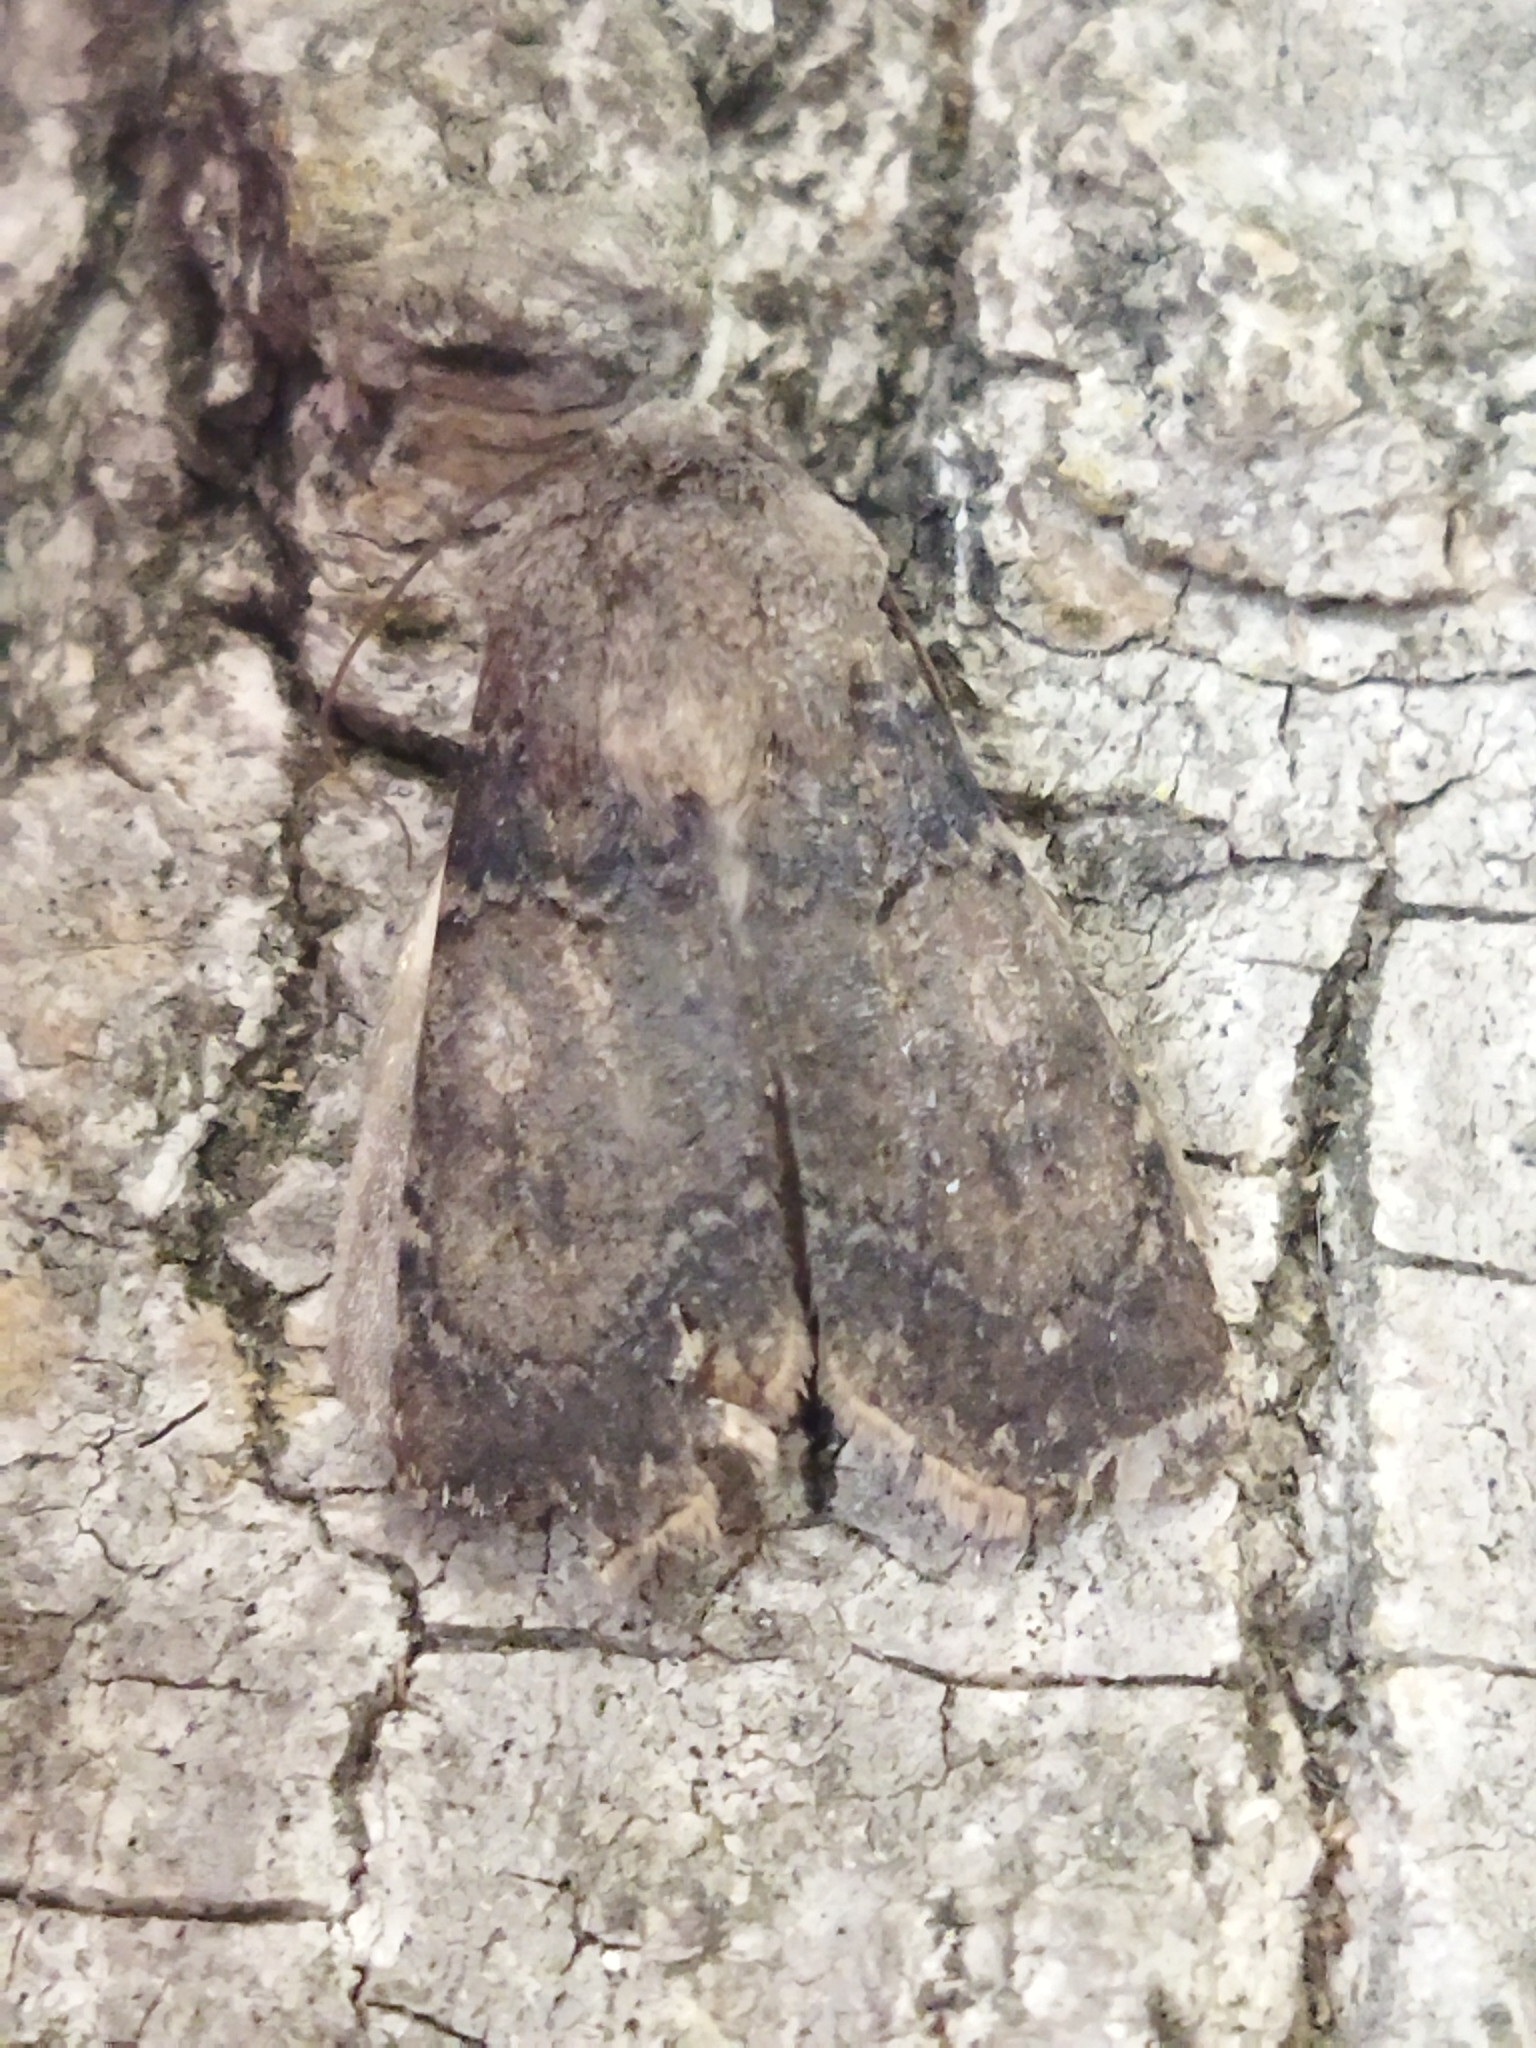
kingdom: Animalia
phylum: Arthropoda
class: Insecta
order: Lepidoptera
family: Noctuidae
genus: Agrotis
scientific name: Agrotis puta
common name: Shuttle-shaped dart
